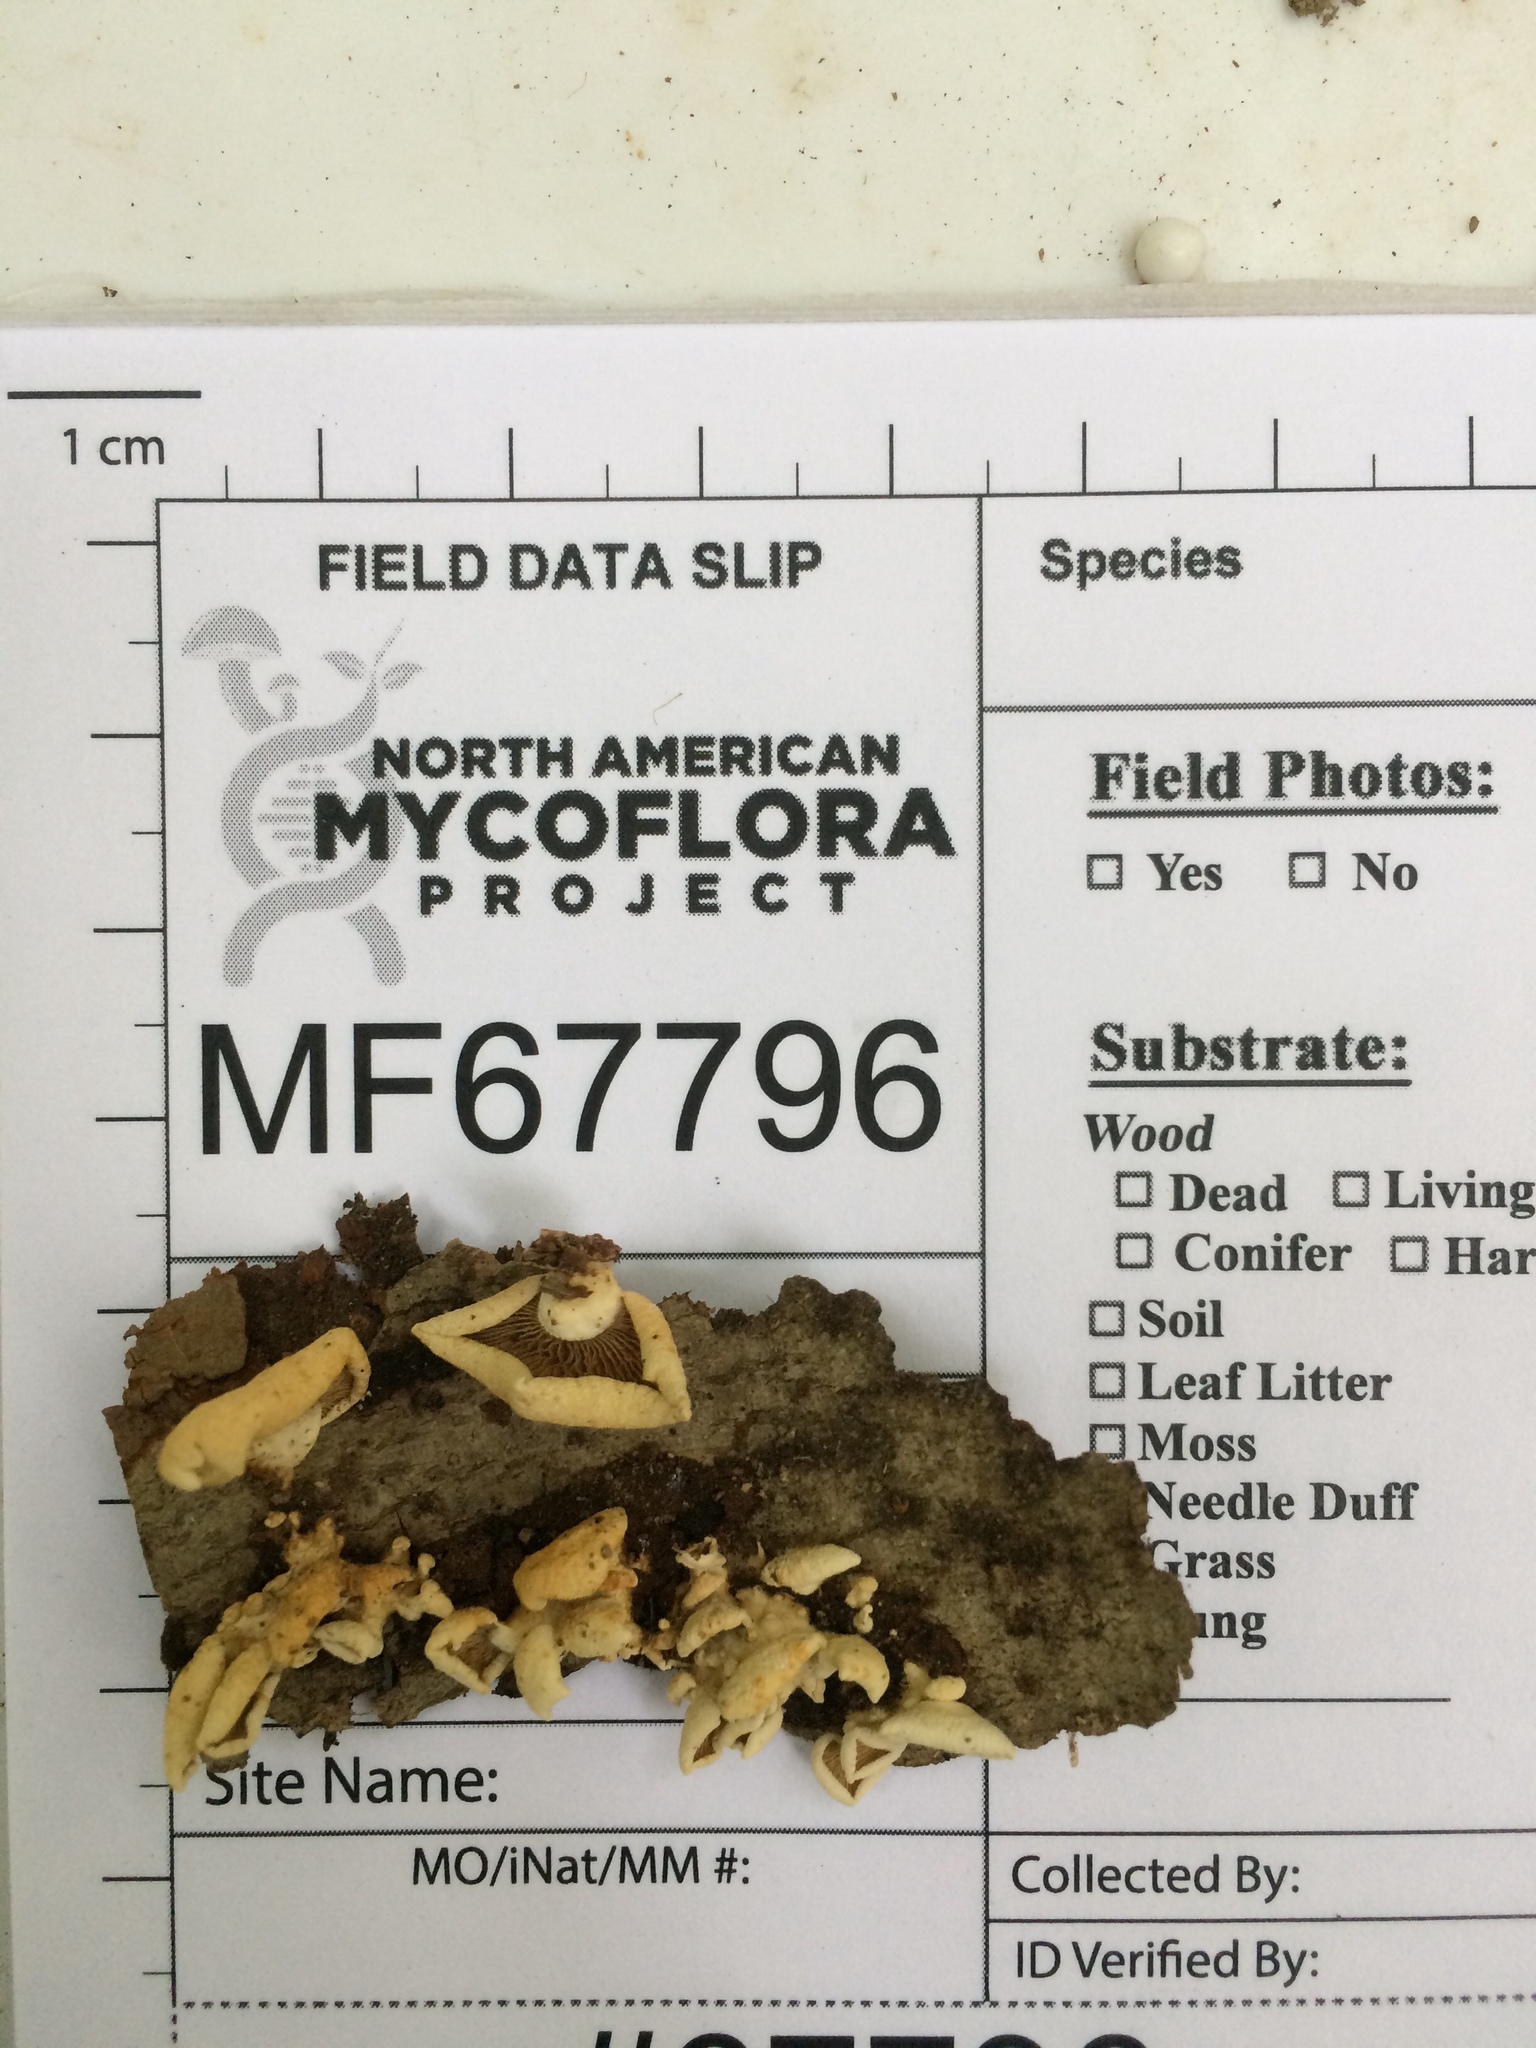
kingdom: Fungi
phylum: Basidiomycota
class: Agaricomycetes
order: Agaricales
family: Mycenaceae
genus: Panellus
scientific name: Panellus stipticus
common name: Bitter oysterling
